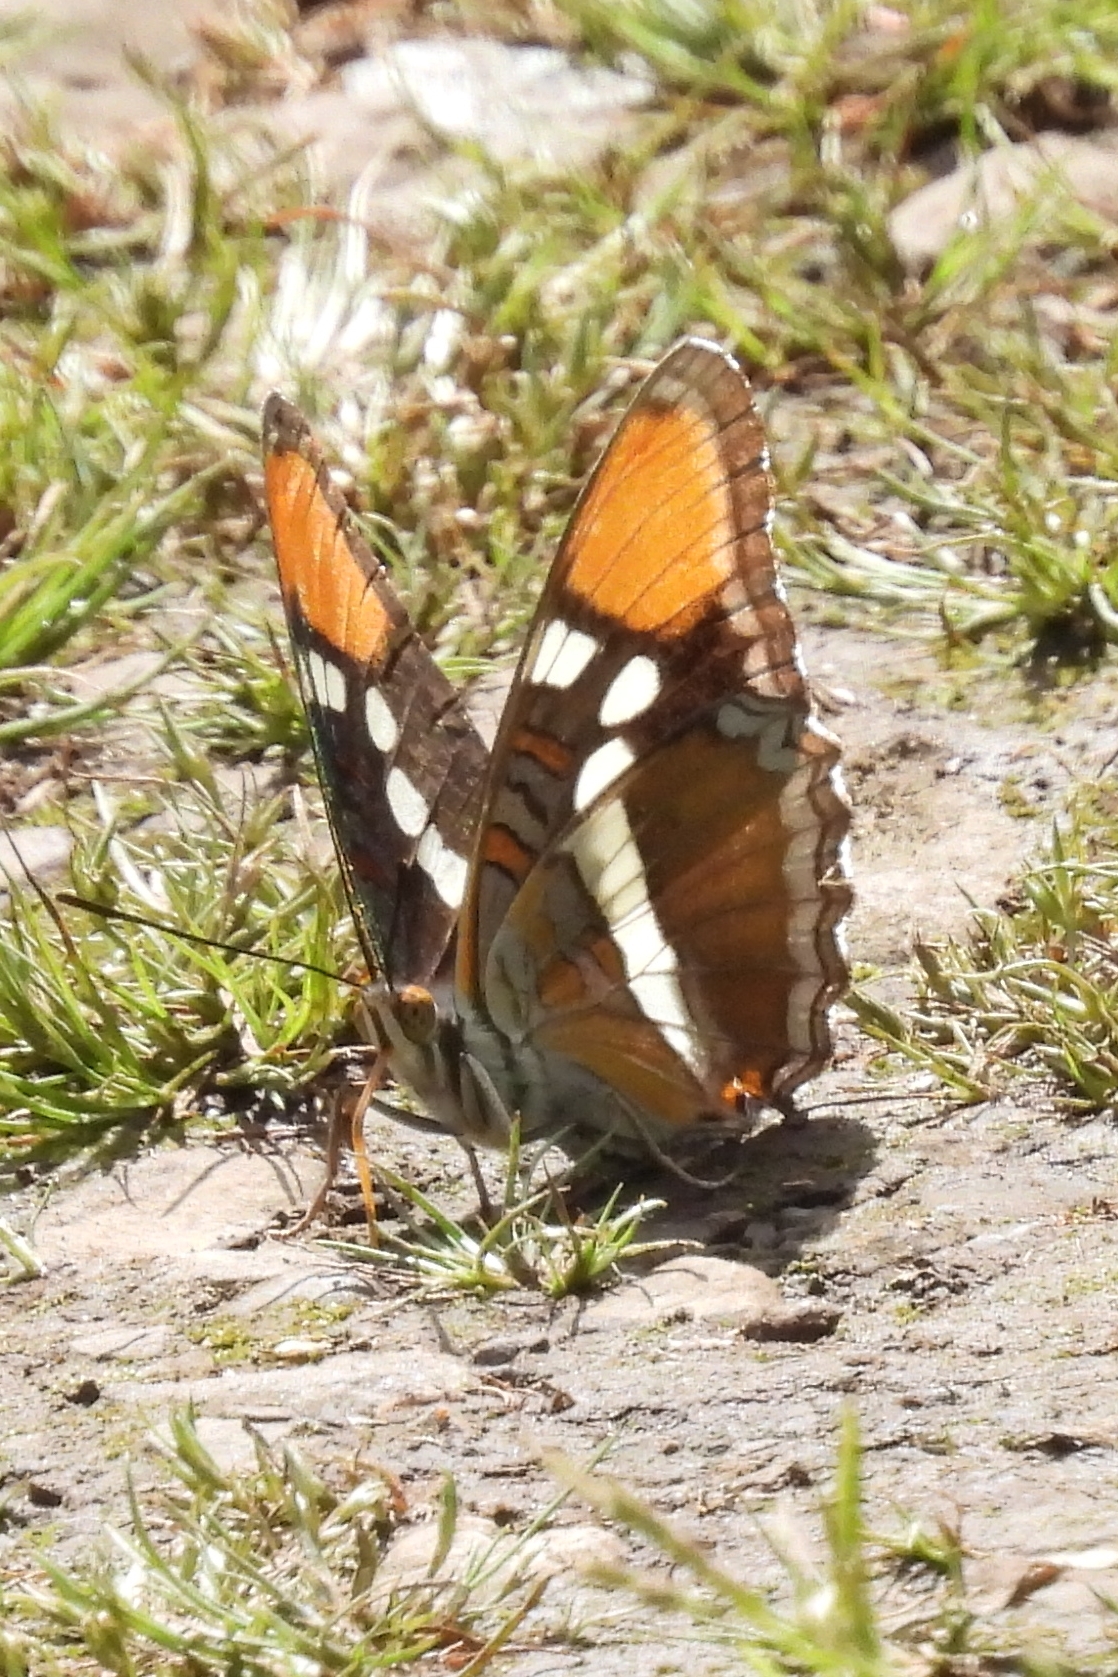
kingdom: Animalia
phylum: Arthropoda
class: Insecta
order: Lepidoptera
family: Nymphalidae
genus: Limenitis
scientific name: Limenitis bredowii
